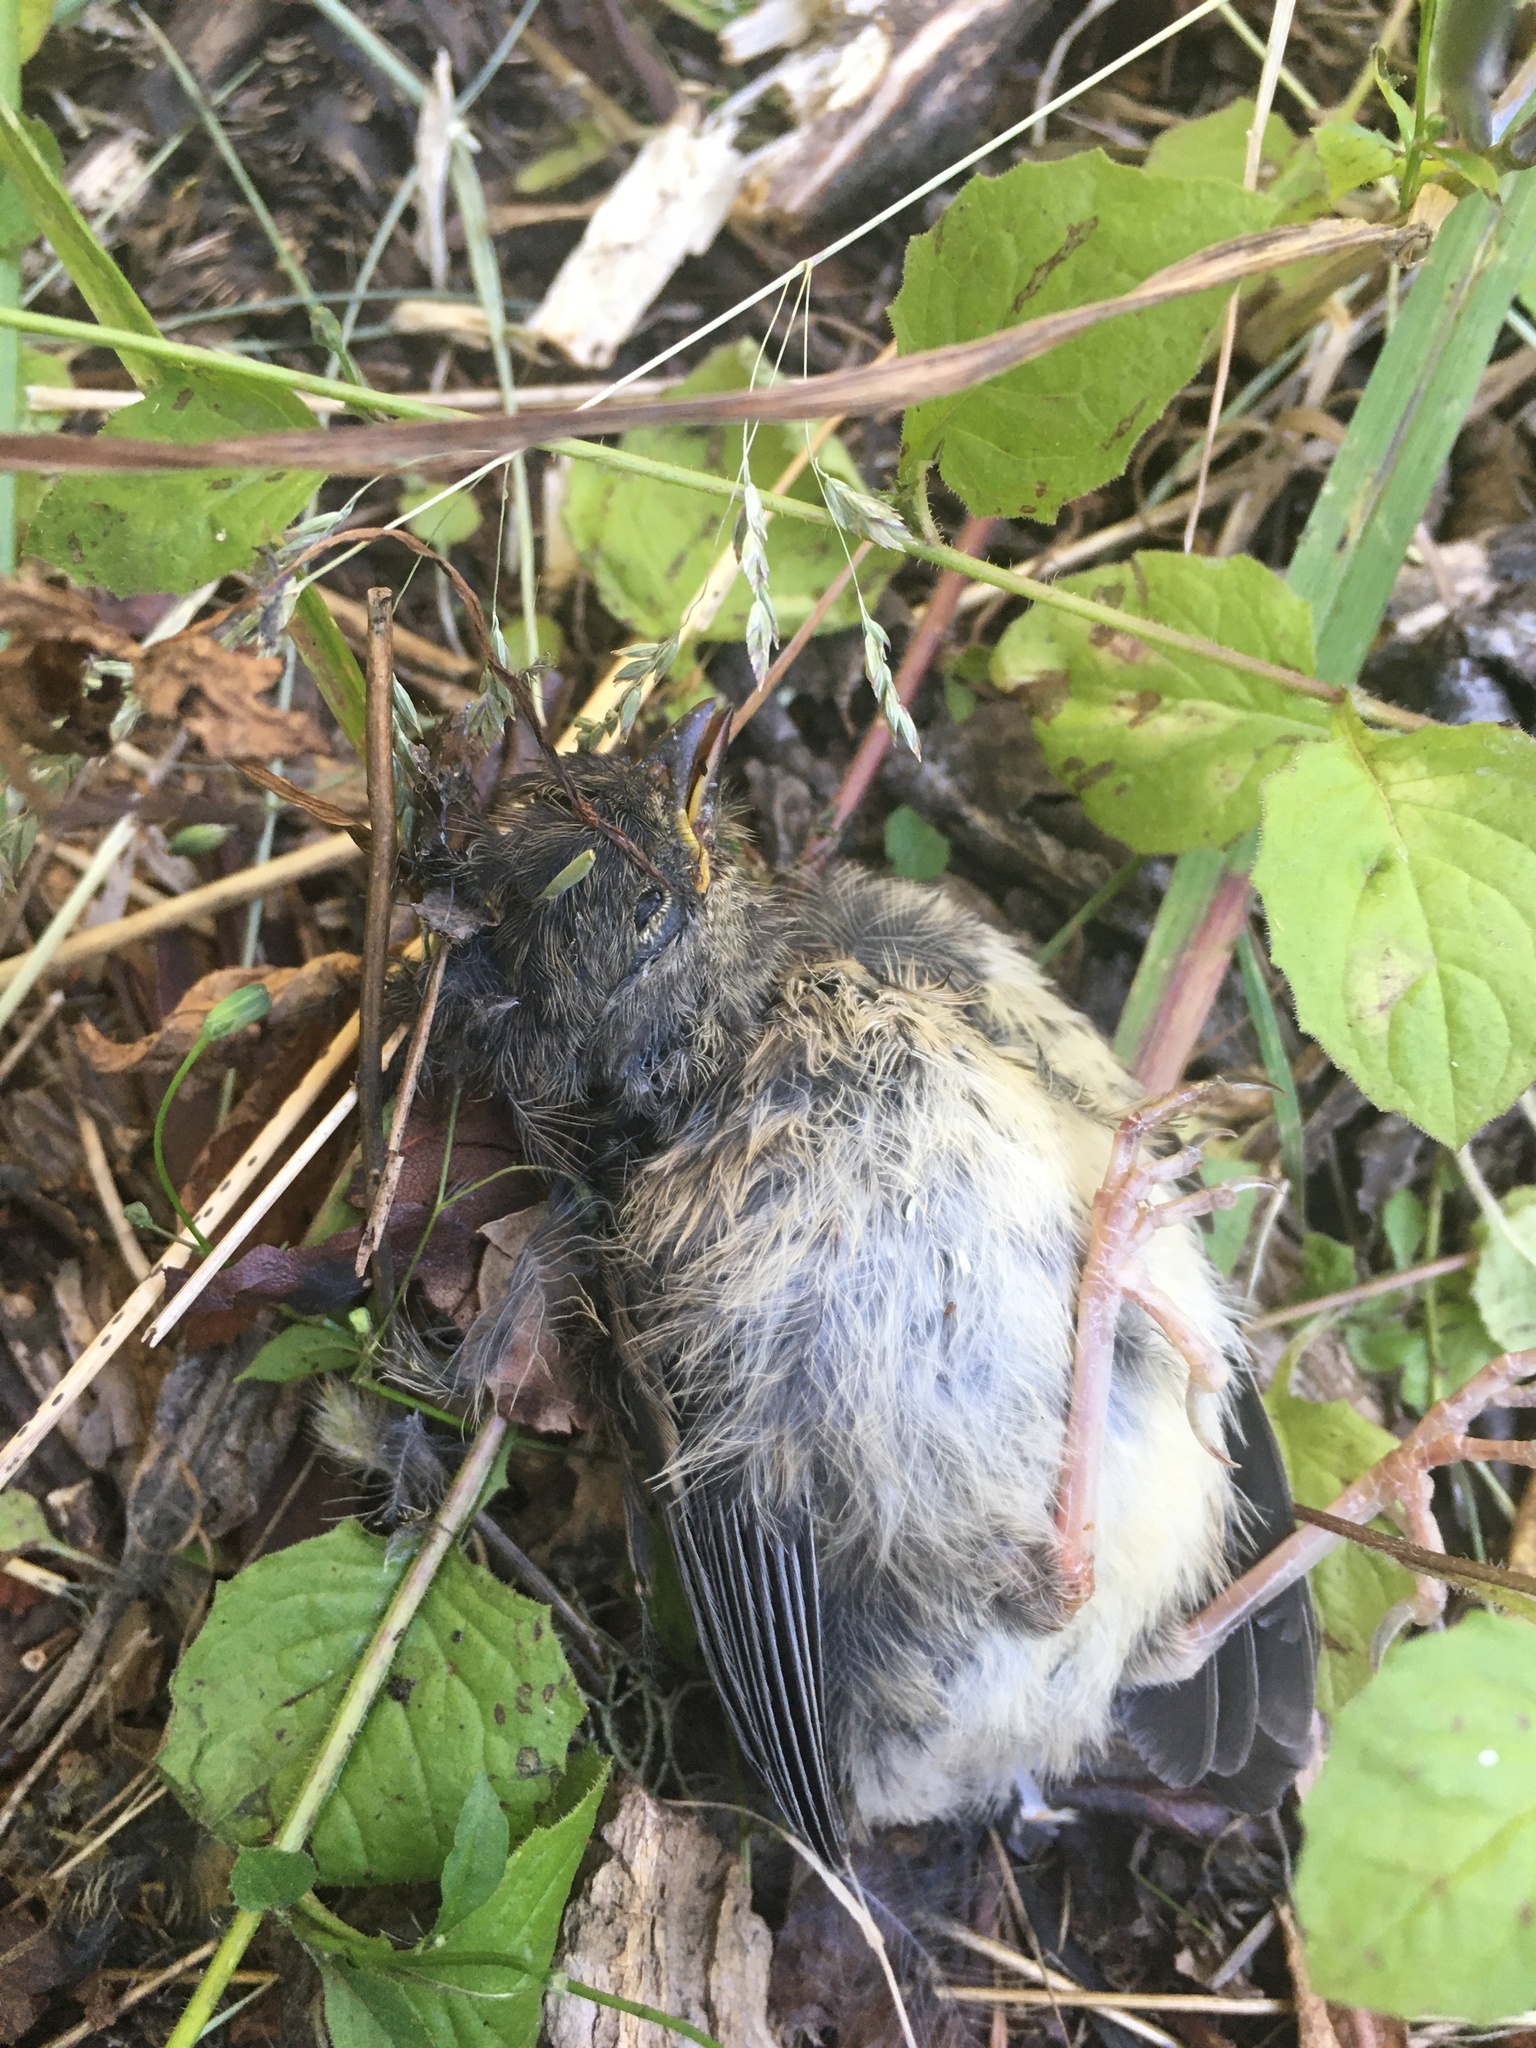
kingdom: Animalia
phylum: Chordata
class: Aves
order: Passeriformes
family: Passerellidae
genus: Junco
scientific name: Junco hyemalis
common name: Dark-eyed junco
